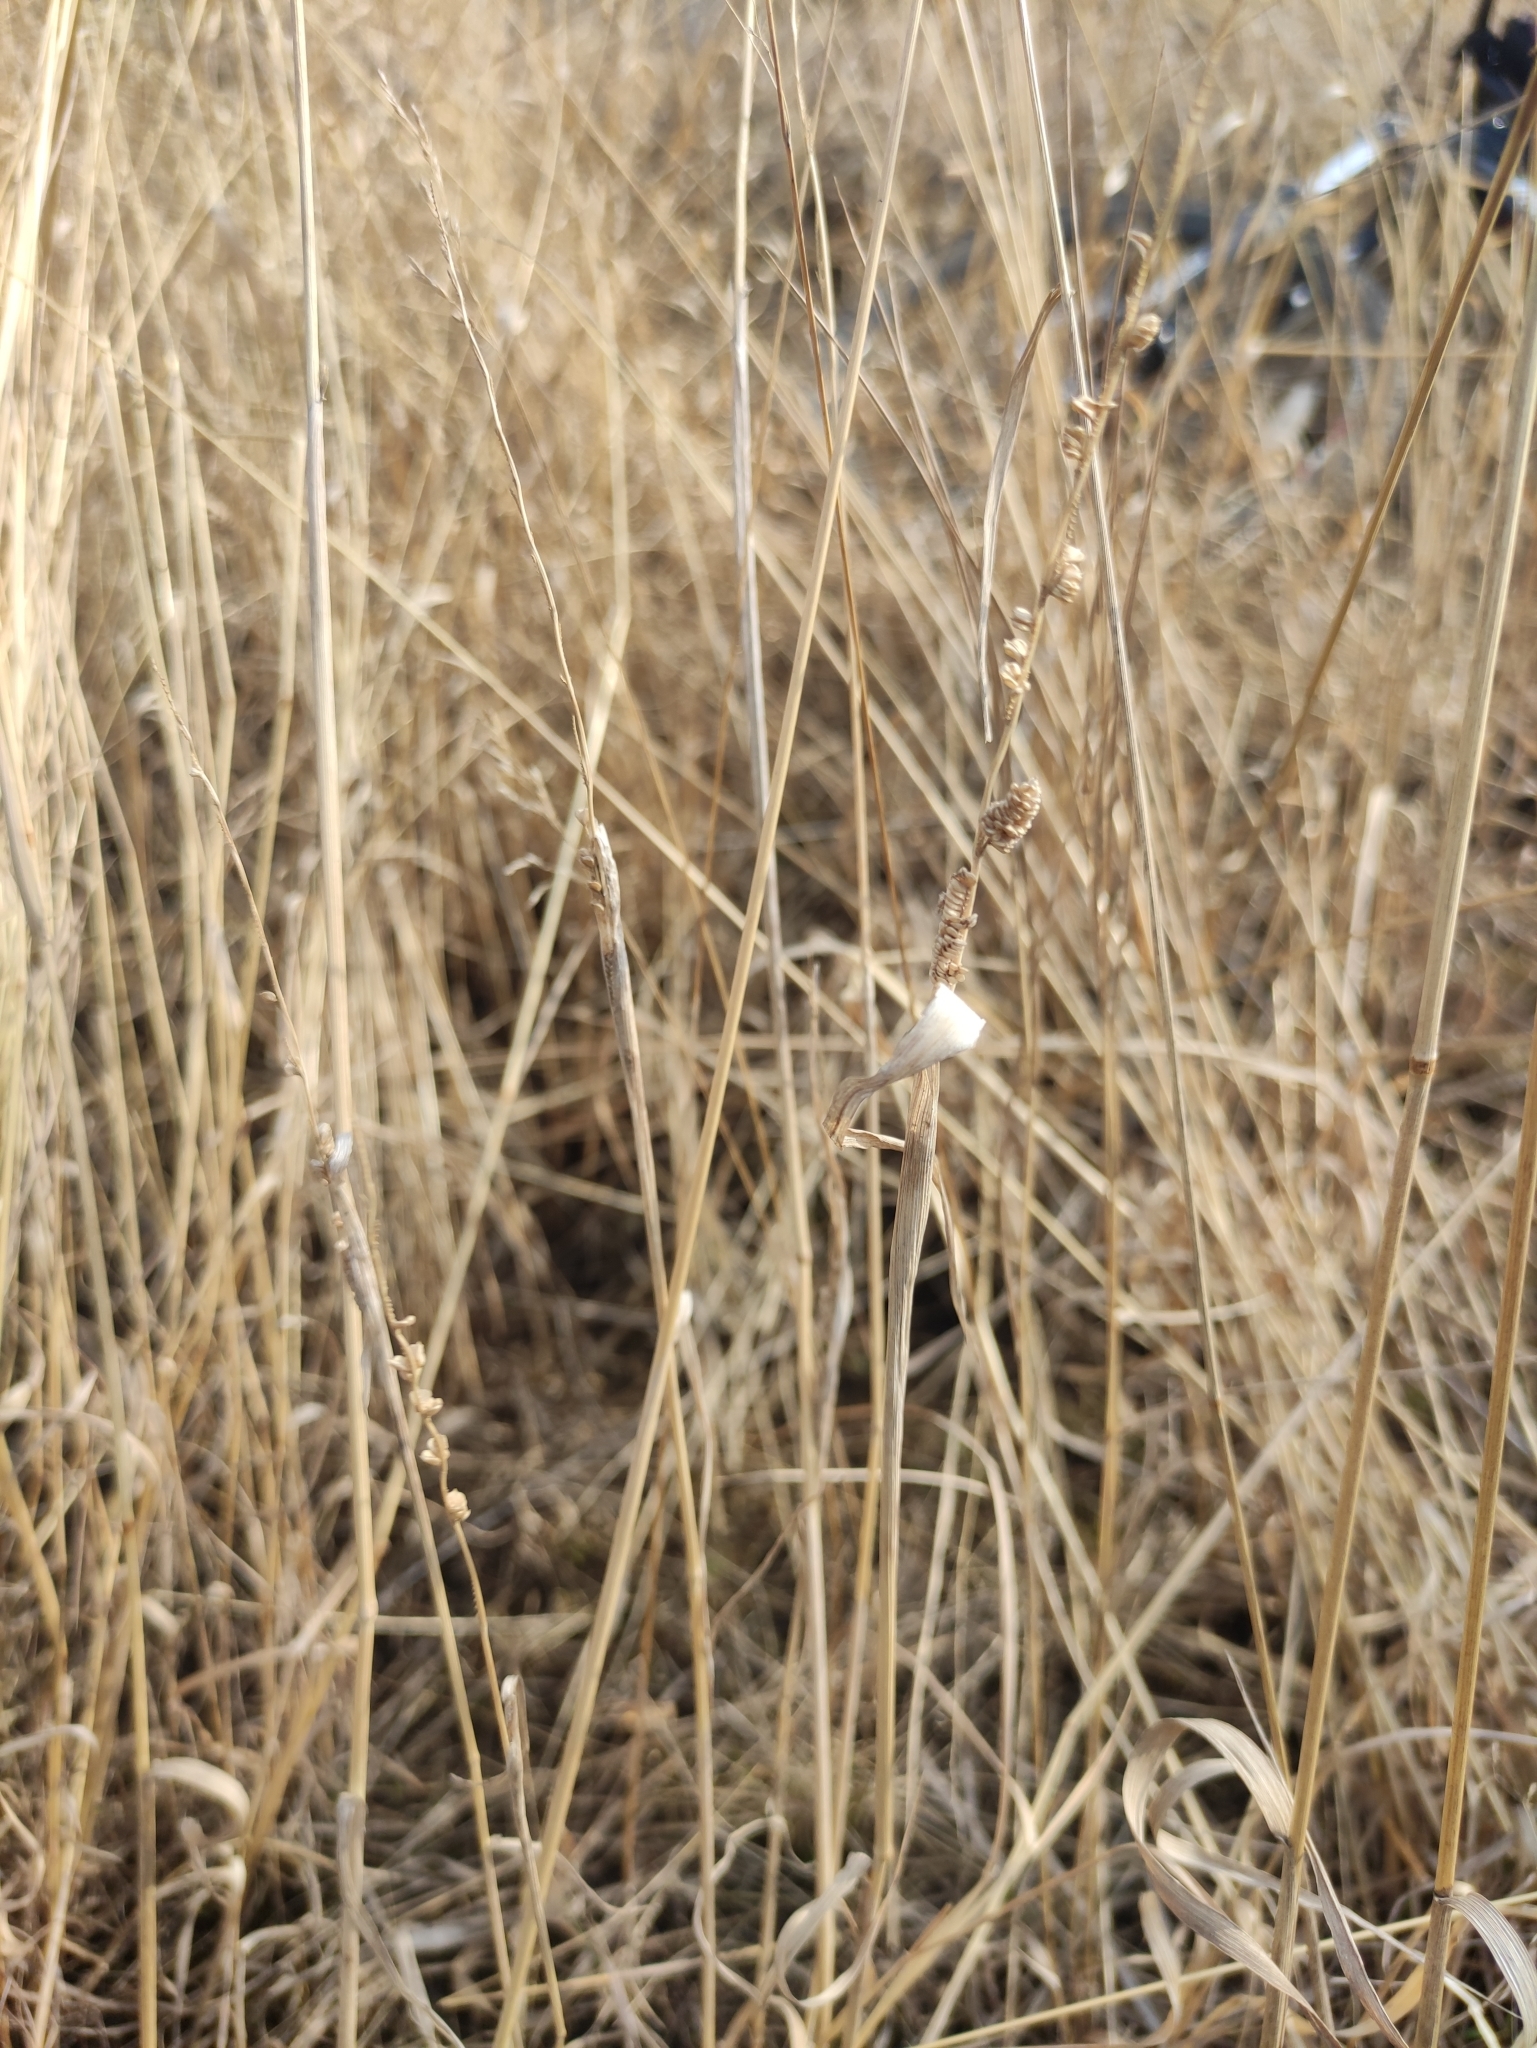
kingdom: Plantae
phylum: Tracheophyta
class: Liliopsida
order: Poales
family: Poaceae
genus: Beckmannia
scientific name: Beckmannia syzigachne
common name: American slough-grass
